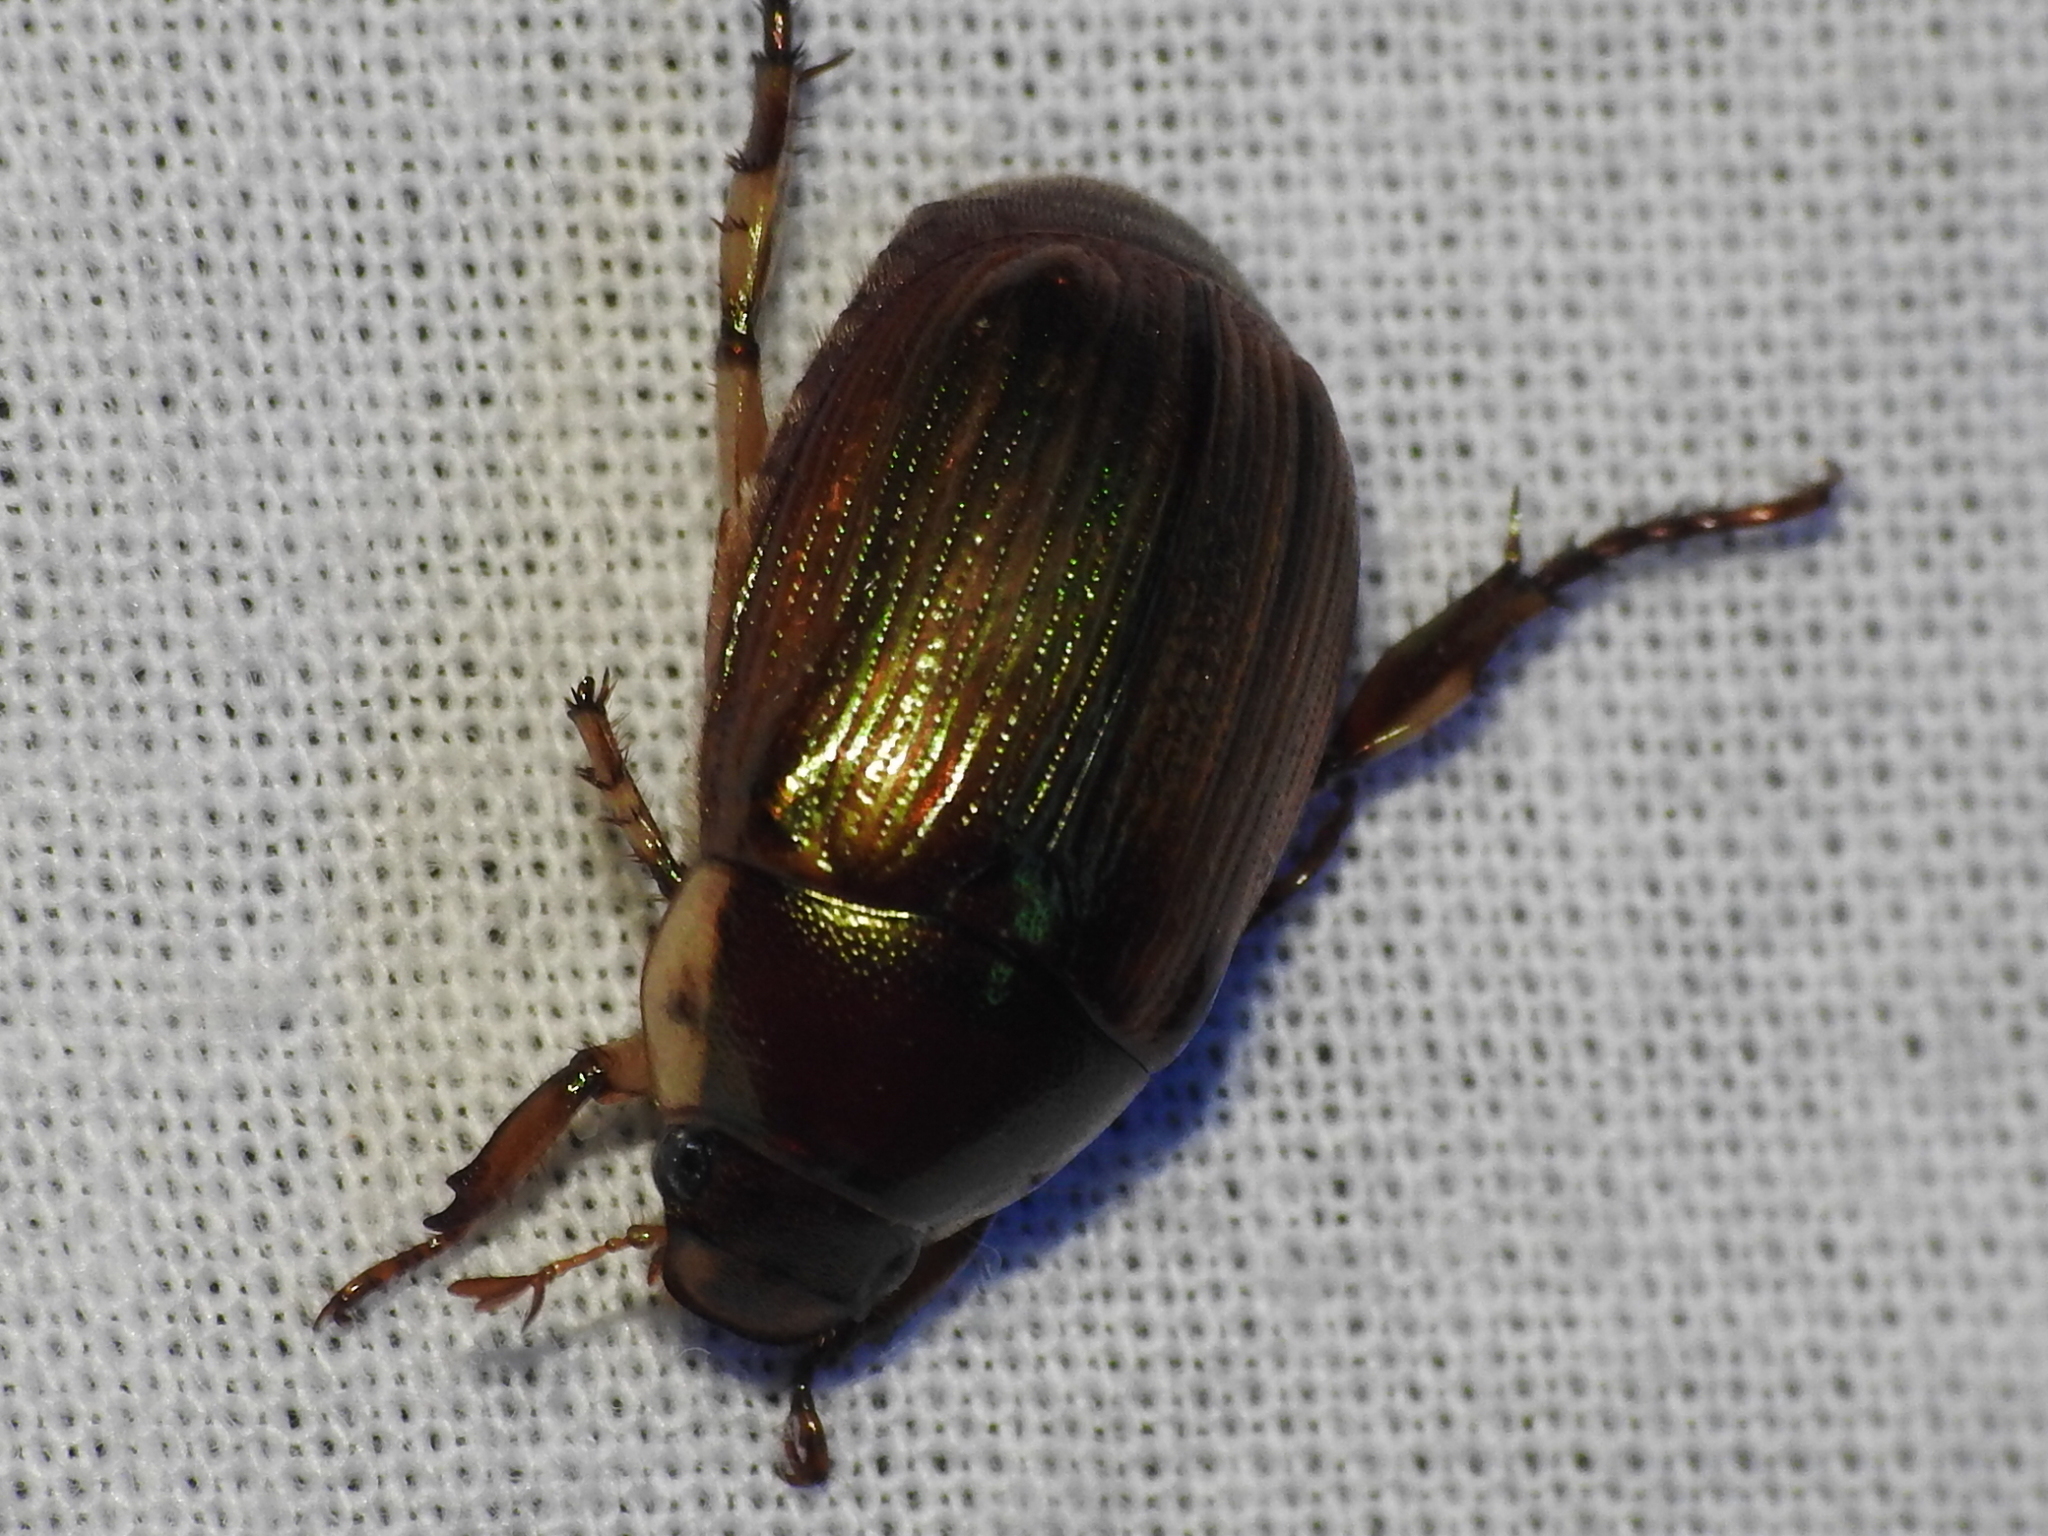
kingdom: Animalia
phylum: Arthropoda
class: Insecta
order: Coleoptera
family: Scarabaeidae
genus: Callistethus
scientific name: Callistethus marginatus
